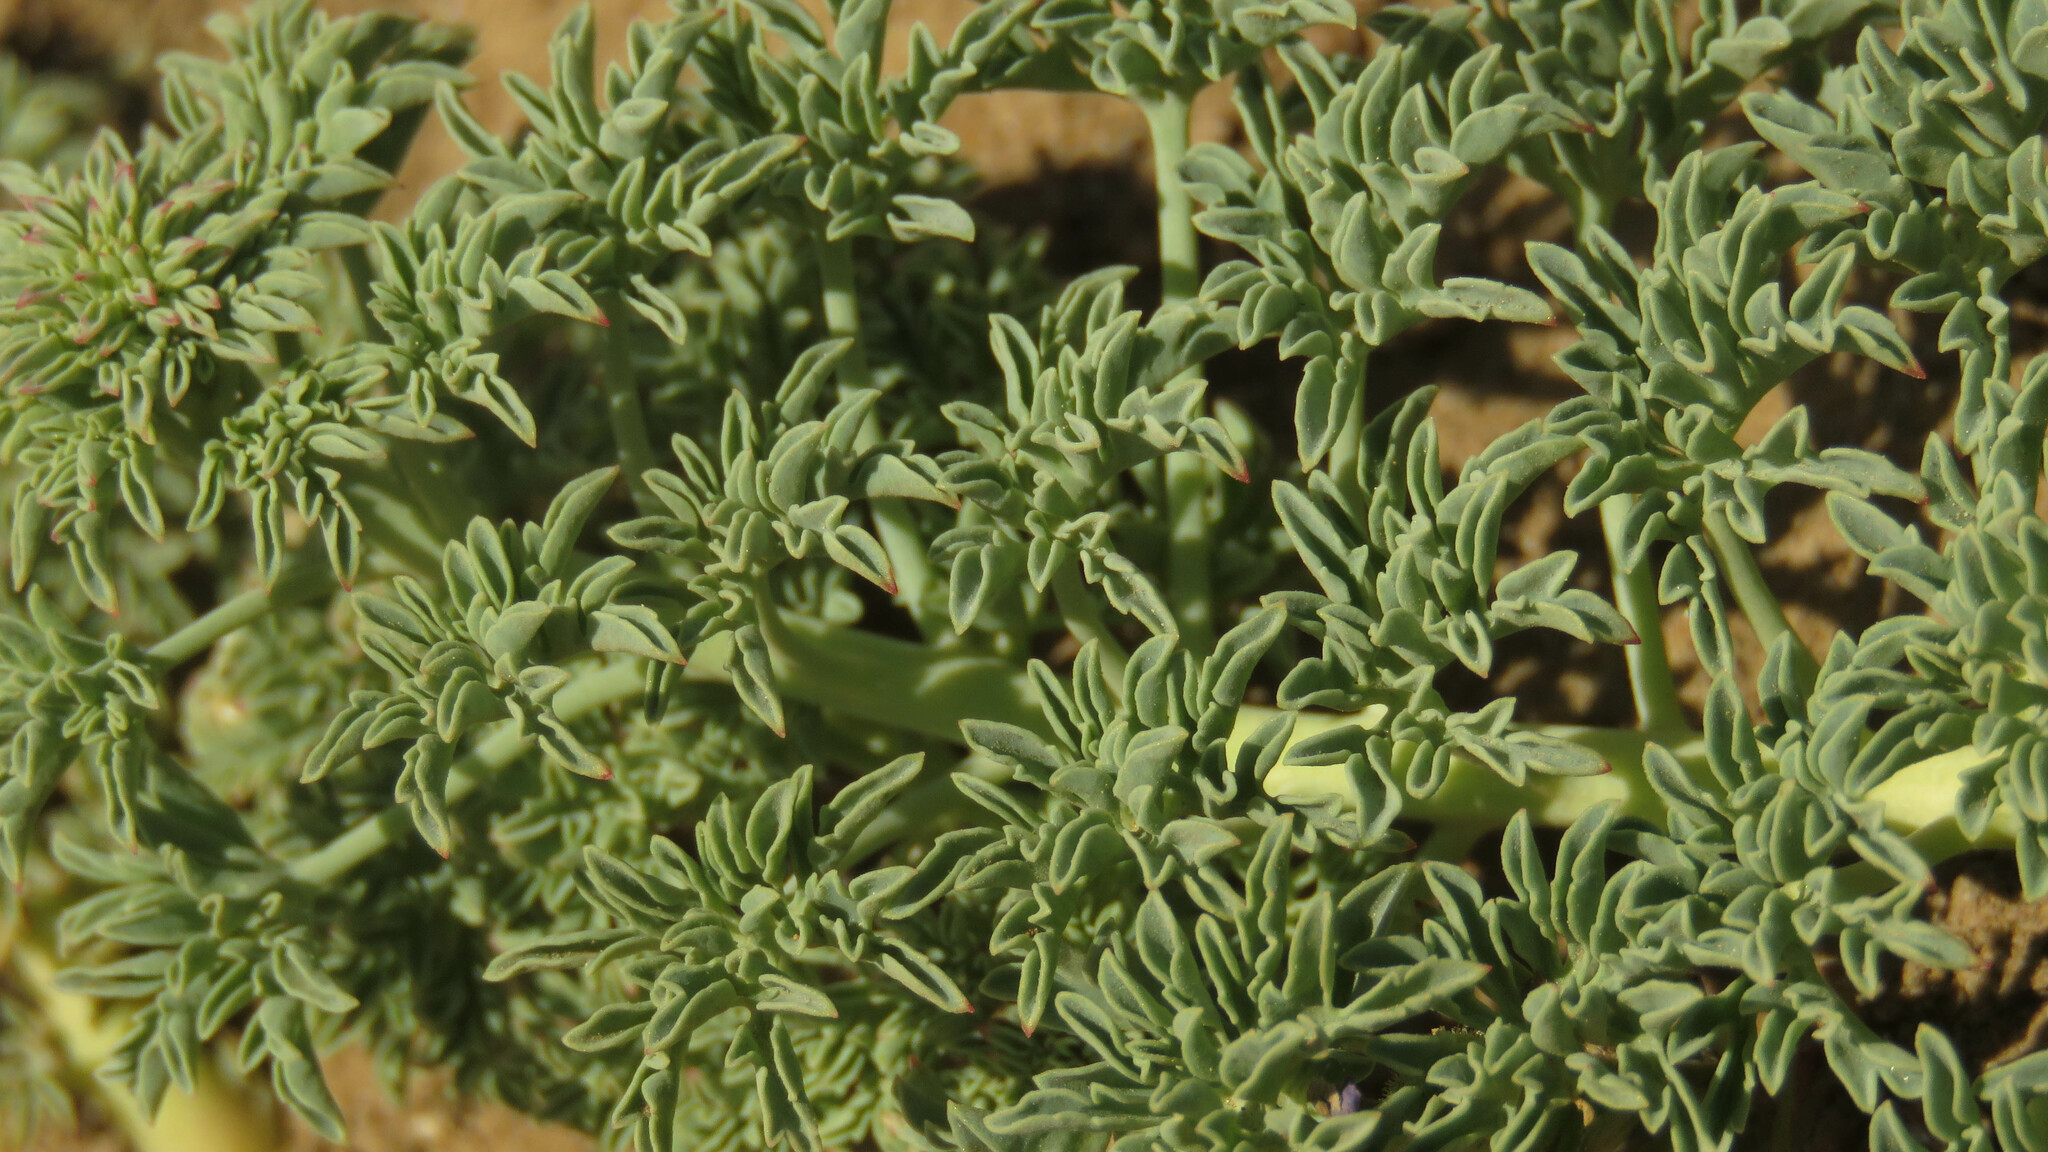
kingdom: Plantae
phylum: Tracheophyta
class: Magnoliopsida
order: Brassicales
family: Tropaeolaceae
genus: Tropaeolum
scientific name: Tropaeolum incisum
